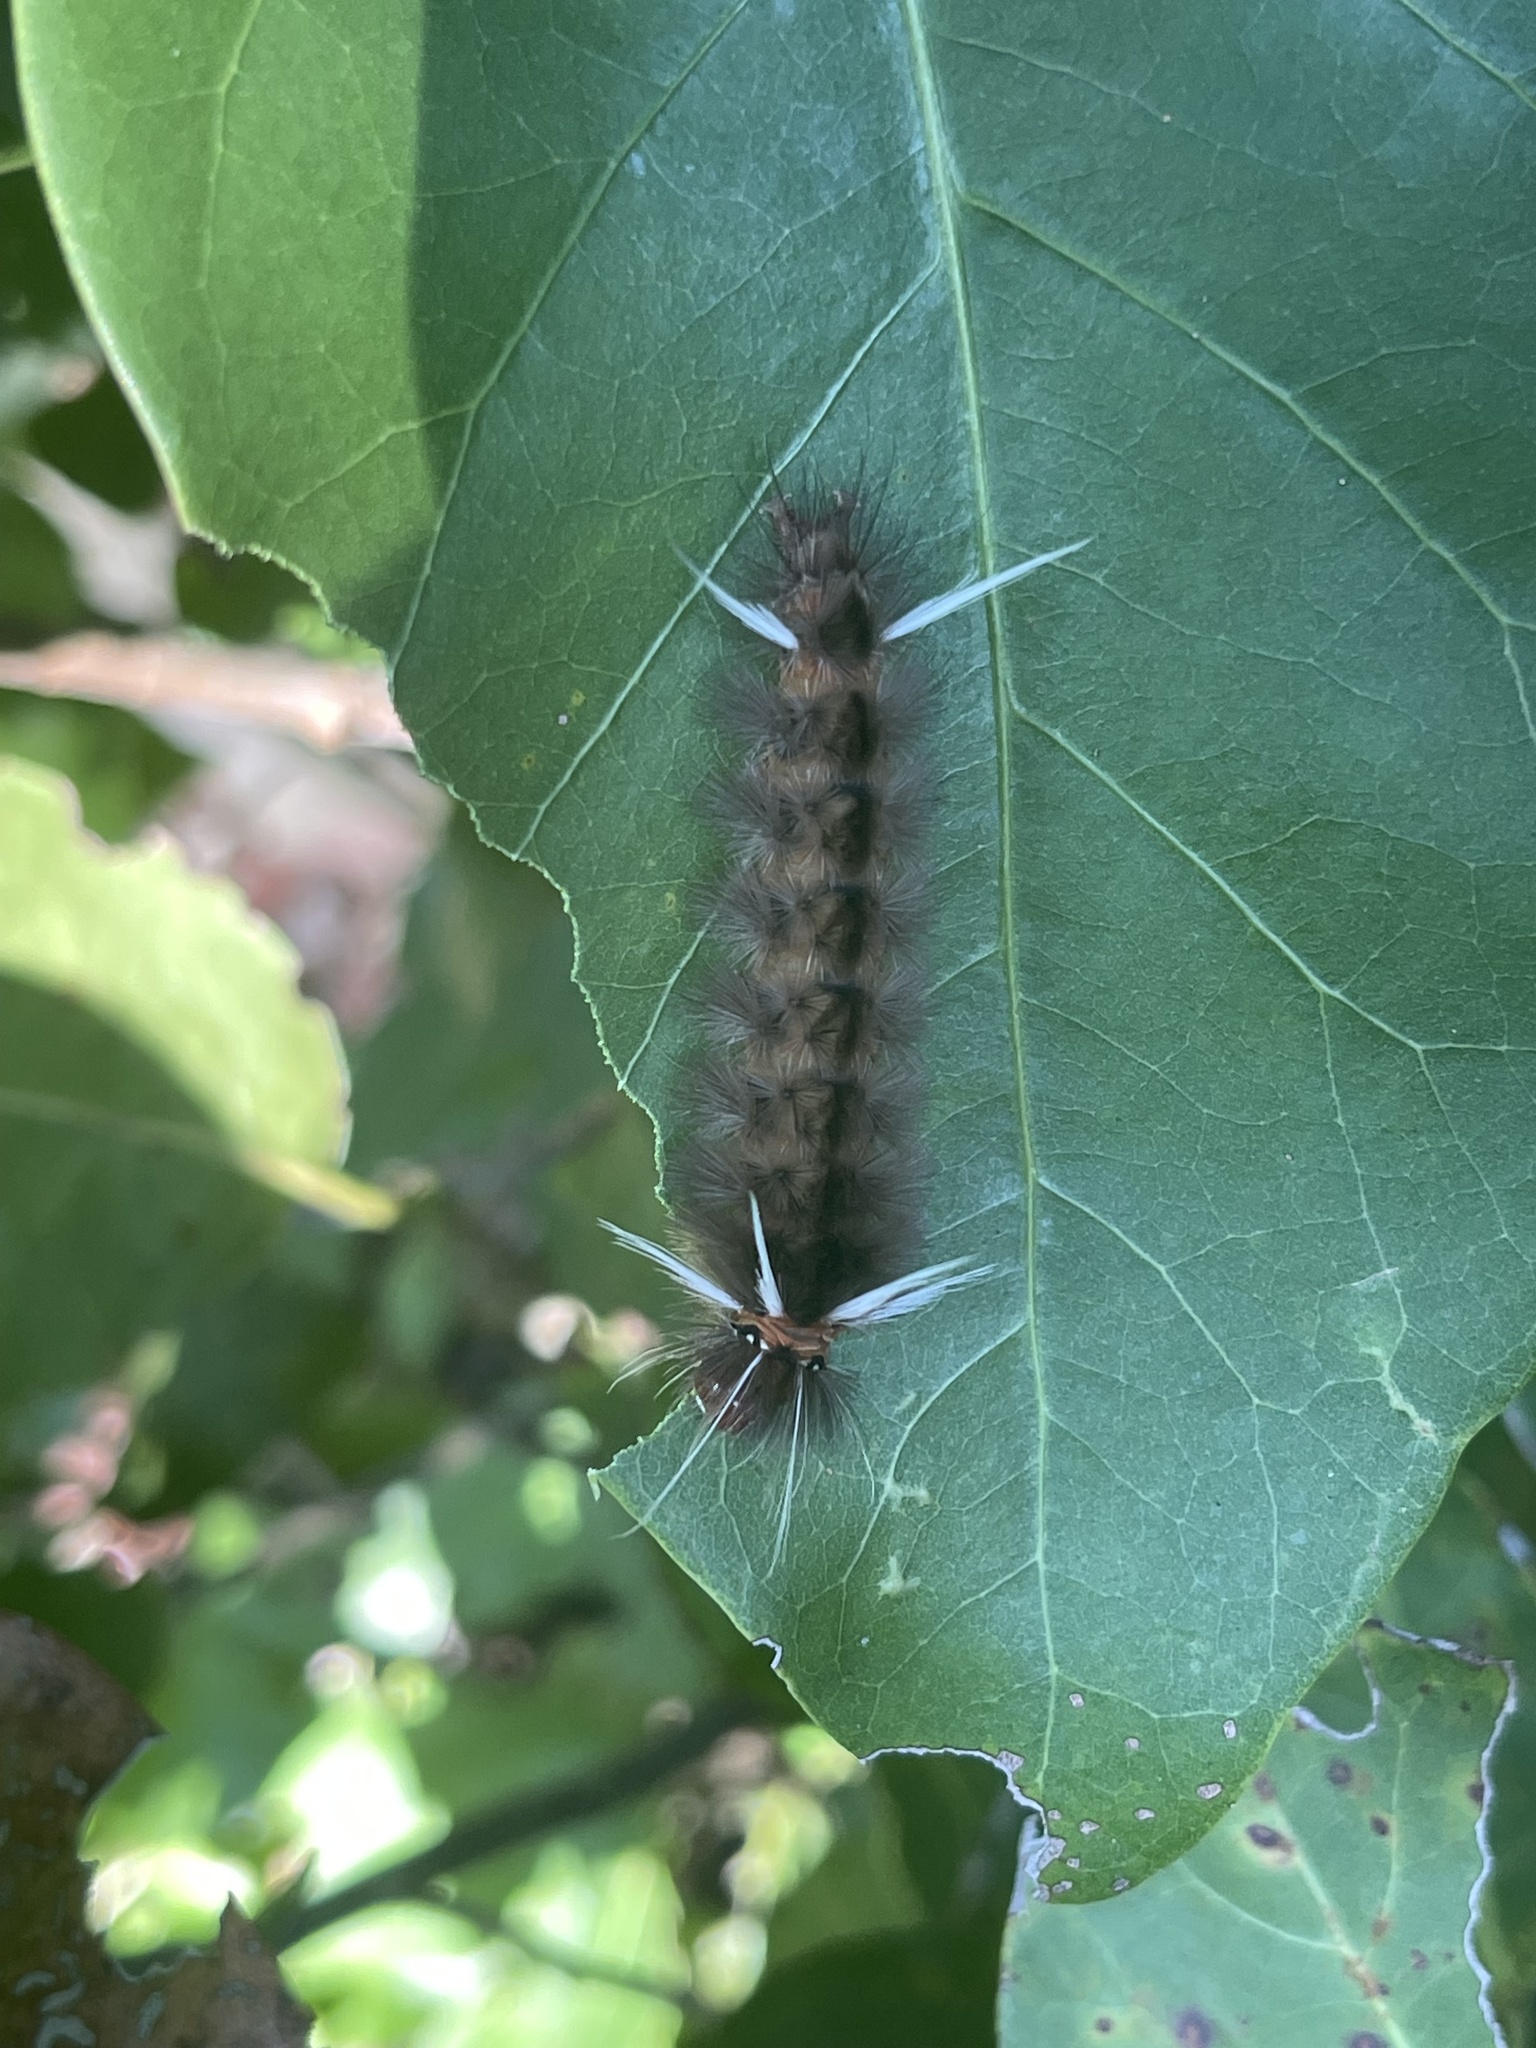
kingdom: Animalia
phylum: Arthropoda
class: Insecta
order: Lepidoptera
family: Erebidae
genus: Halysidota
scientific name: Halysidota cinctipes
